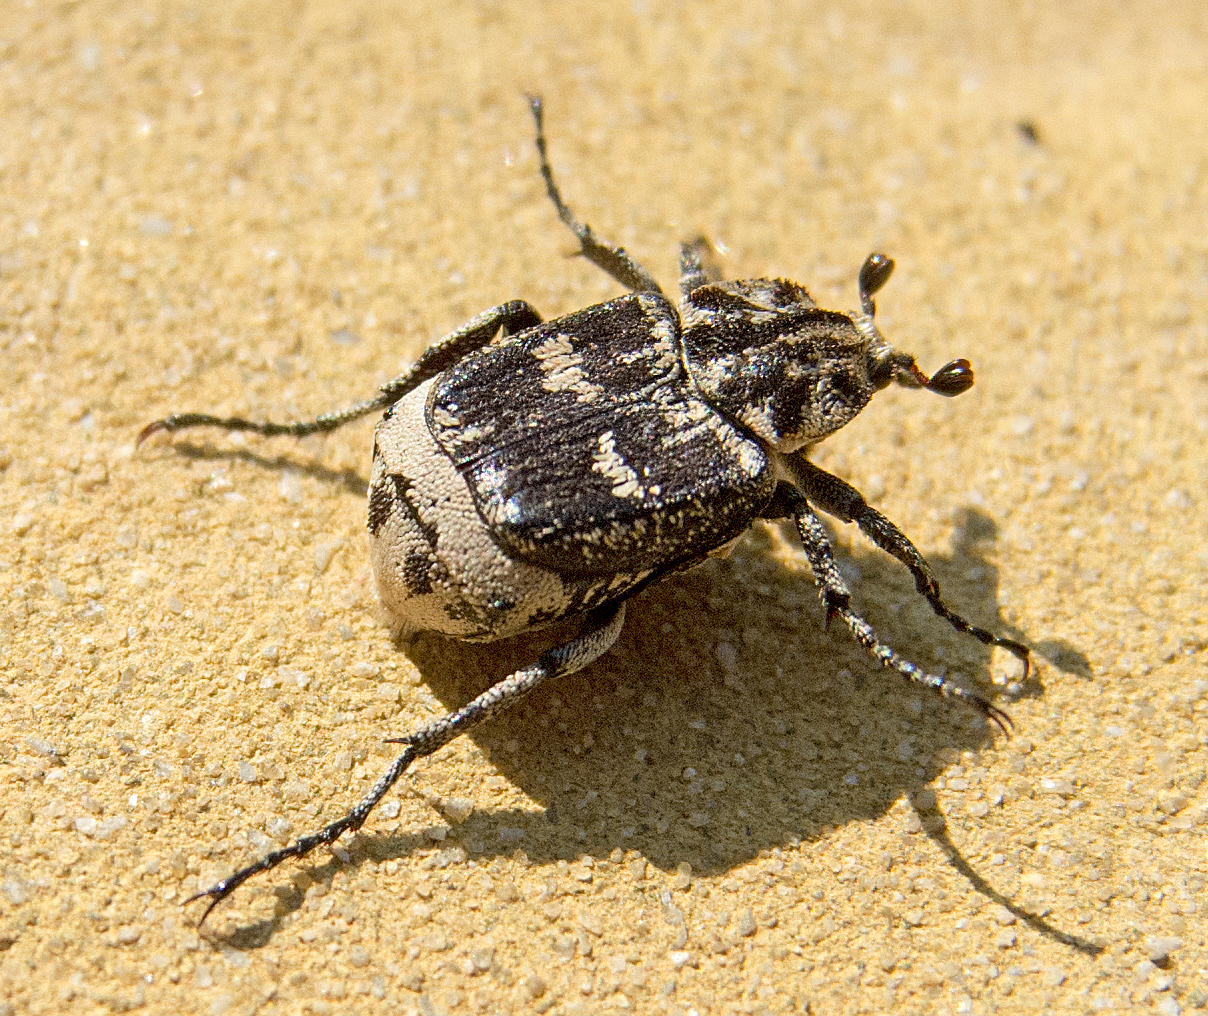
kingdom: Animalia
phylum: Arthropoda
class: Insecta
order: Coleoptera
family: Scarabaeidae
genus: Valgus
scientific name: Valgus hemipterus
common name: Bug flower chafer
